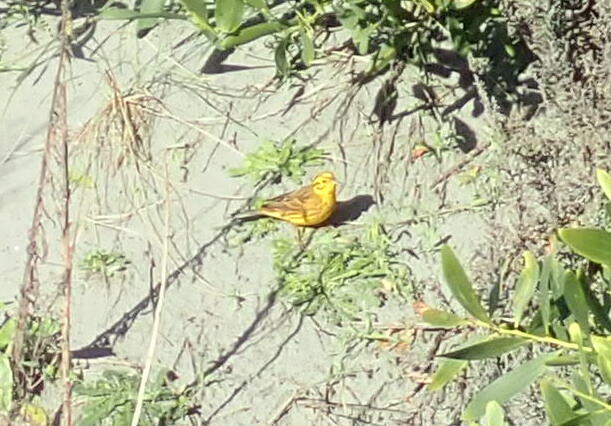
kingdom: Animalia
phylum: Chordata
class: Aves
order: Passeriformes
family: Emberizidae
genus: Emberiza
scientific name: Emberiza citrinella
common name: Yellowhammer
